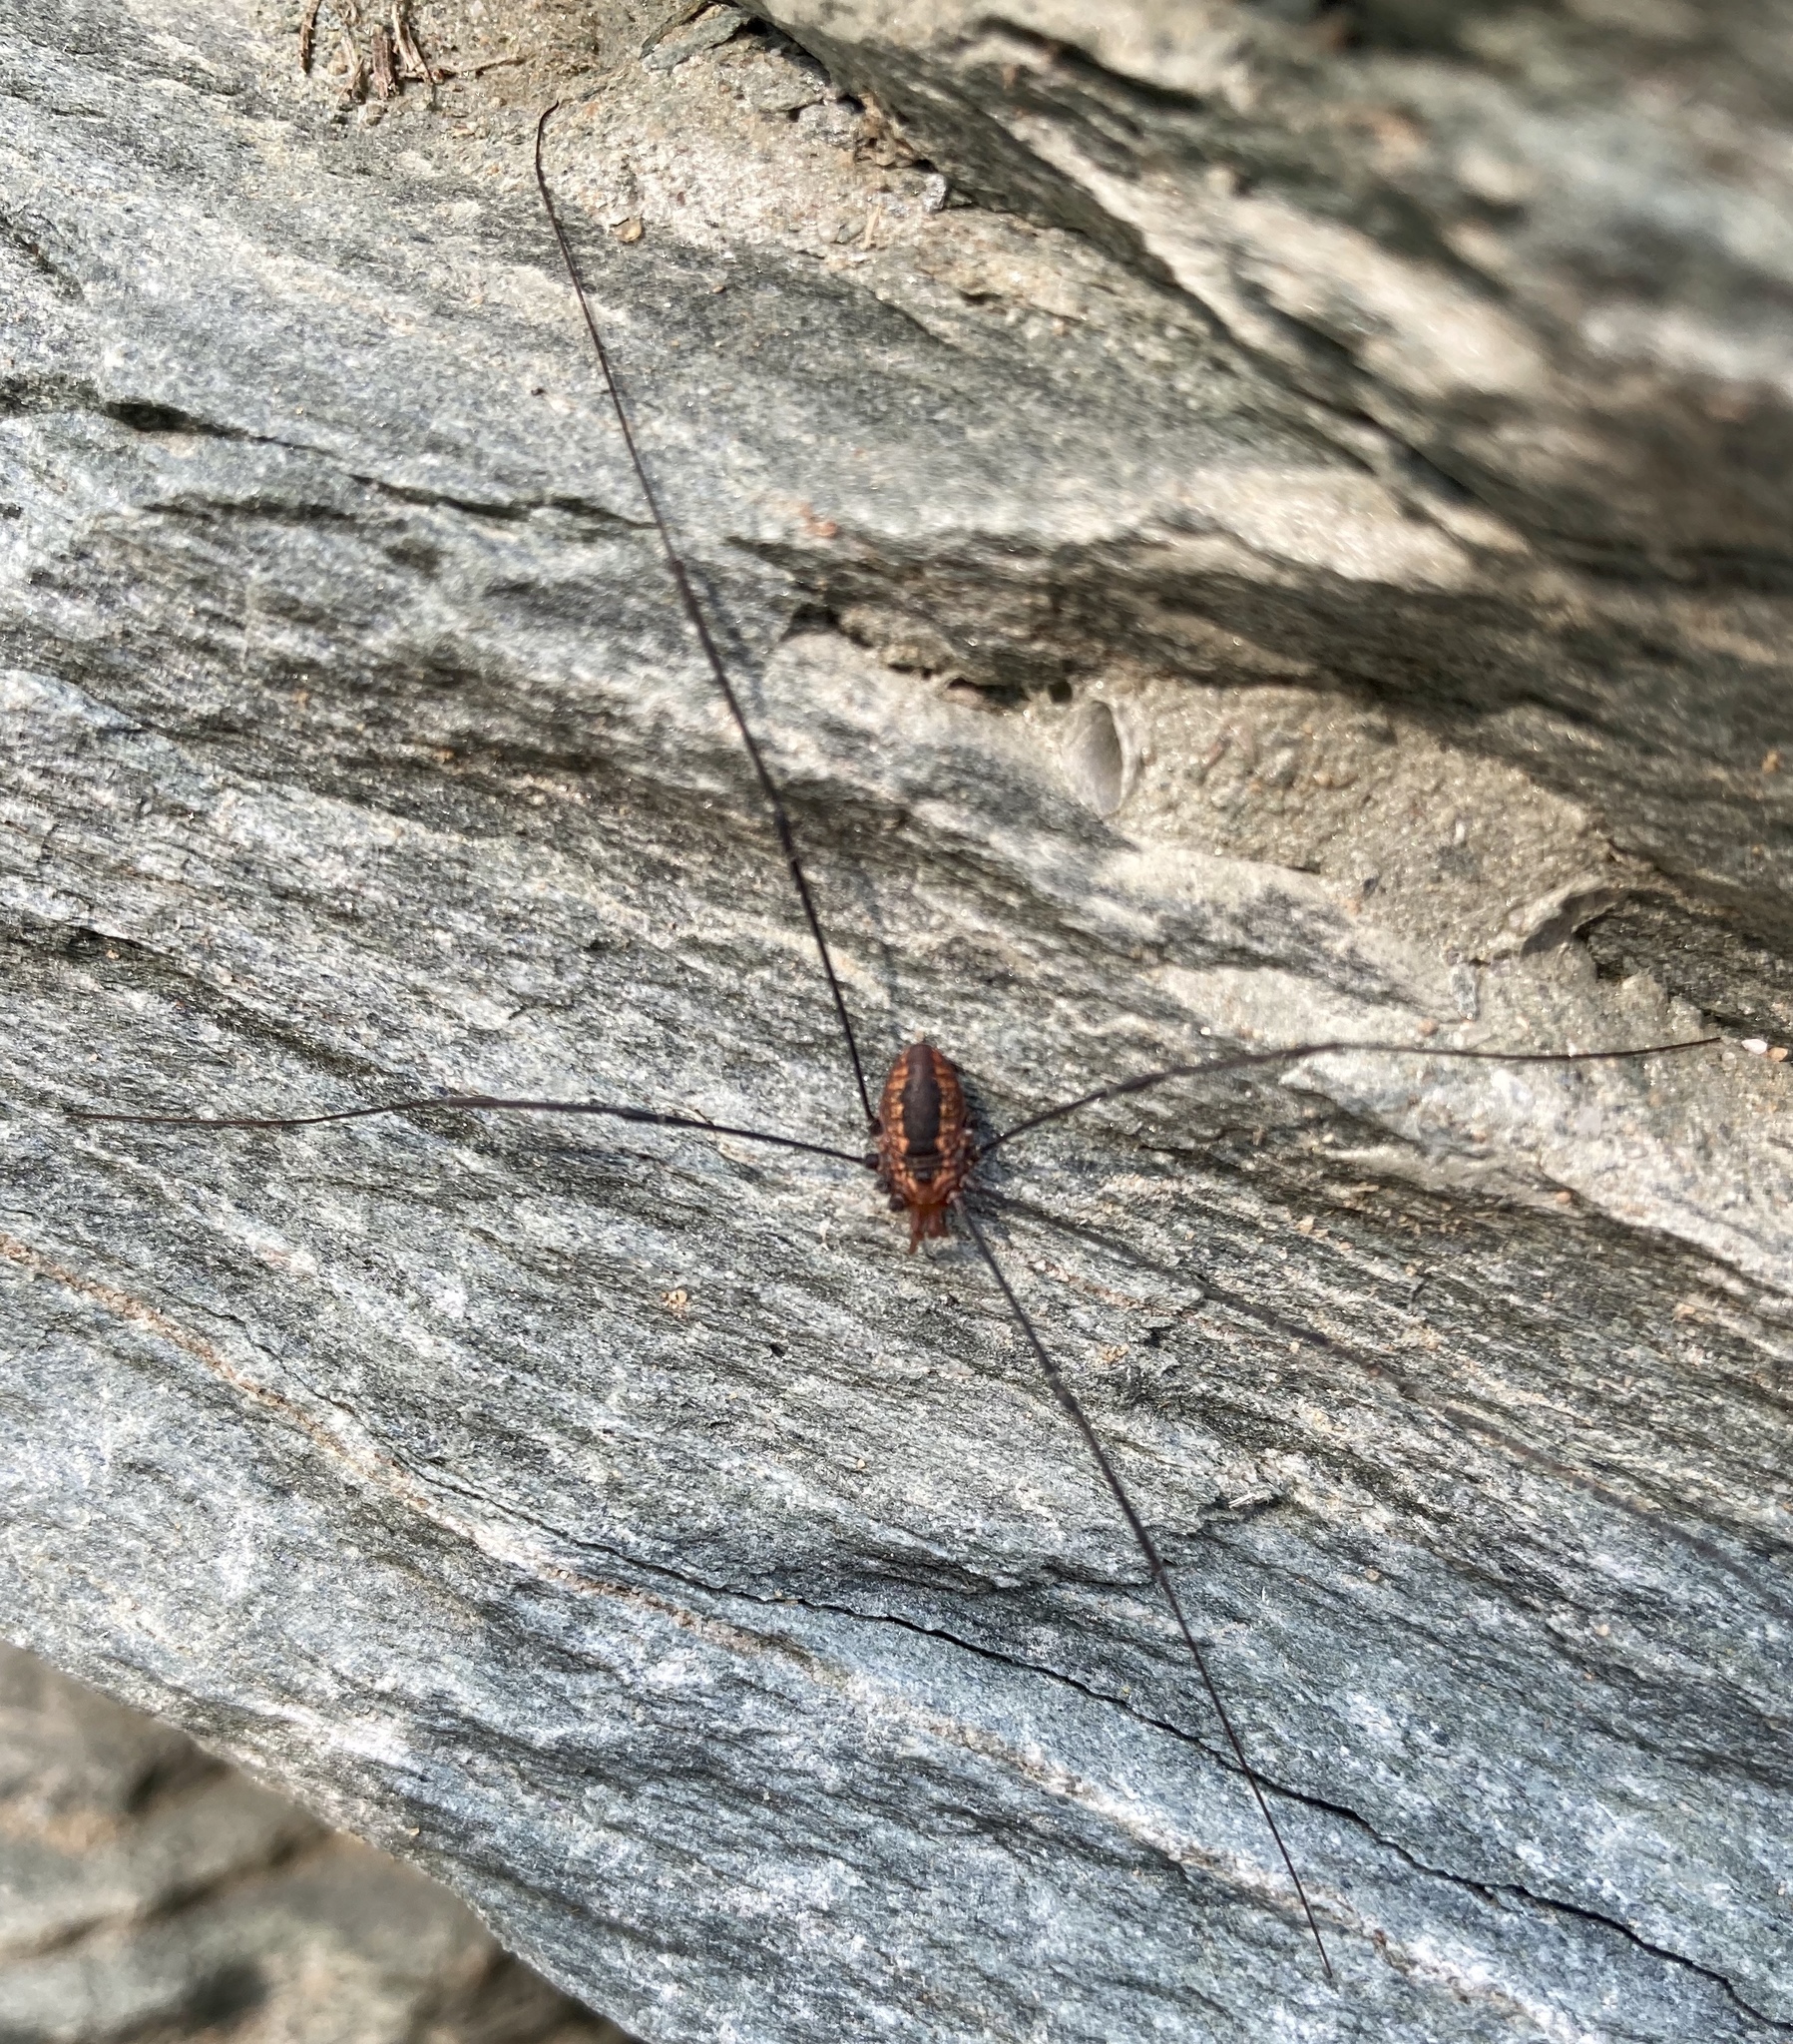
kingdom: Animalia
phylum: Arthropoda
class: Arachnida
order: Opiliones
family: Sclerosomatidae
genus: Leiobunum
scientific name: Leiobunum vittatum
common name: Eastern harvestman
